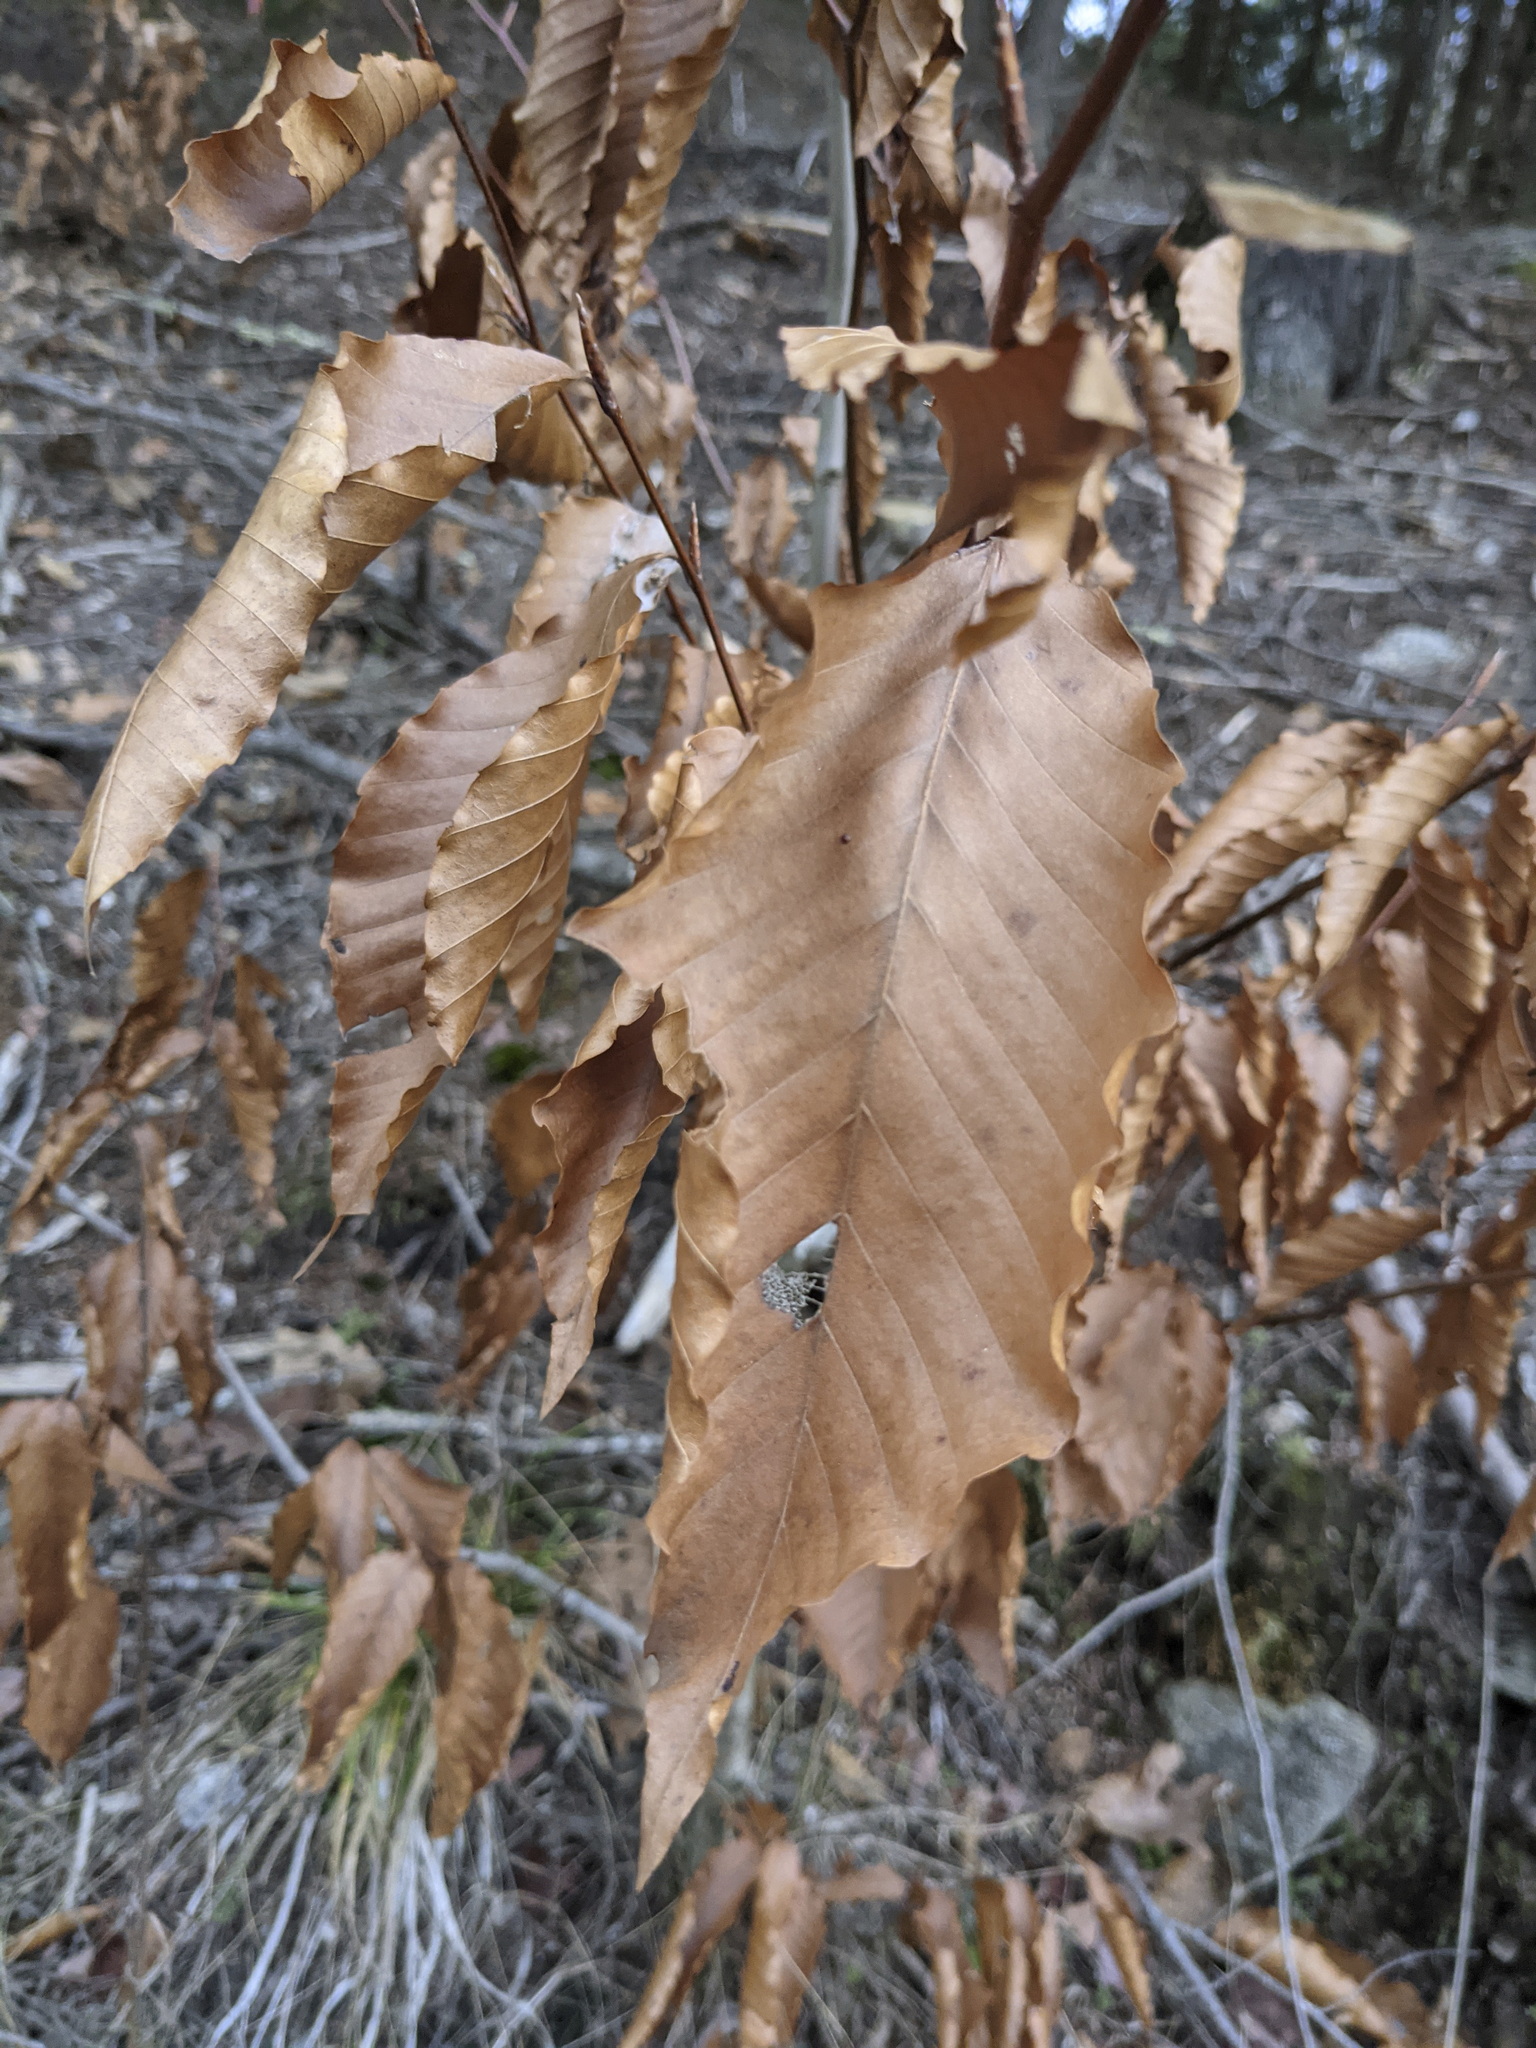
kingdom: Plantae
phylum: Tracheophyta
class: Magnoliopsida
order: Fagales
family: Fagaceae
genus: Fagus
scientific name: Fagus grandifolia
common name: American beech
